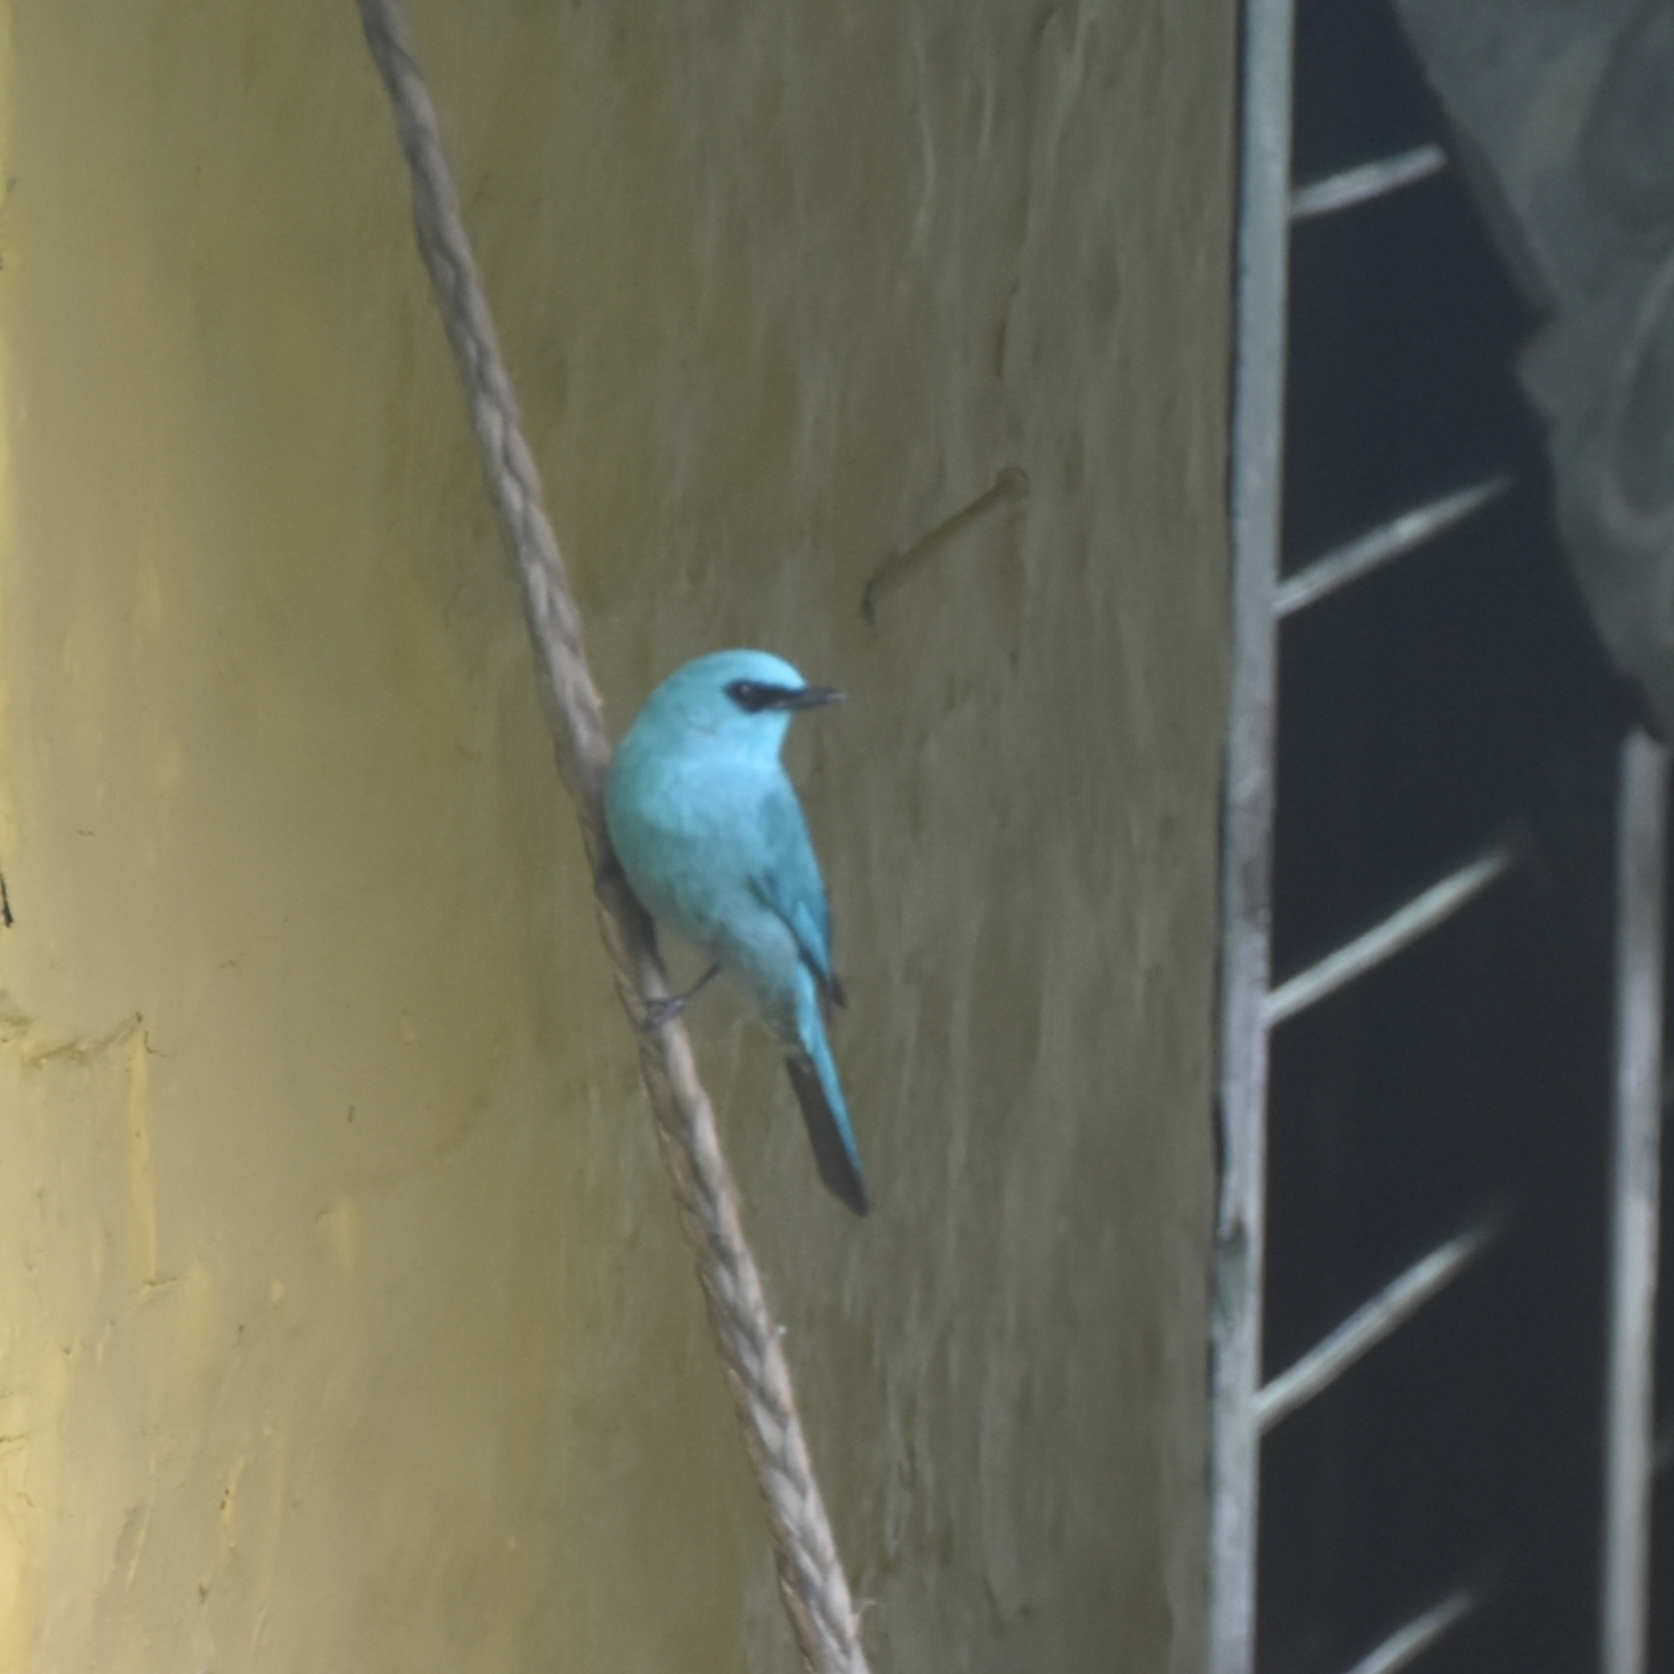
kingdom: Animalia
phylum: Chordata
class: Aves
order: Passeriformes
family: Muscicapidae
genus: Eumyias
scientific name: Eumyias thalassinus
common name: Verditer flycatcher
